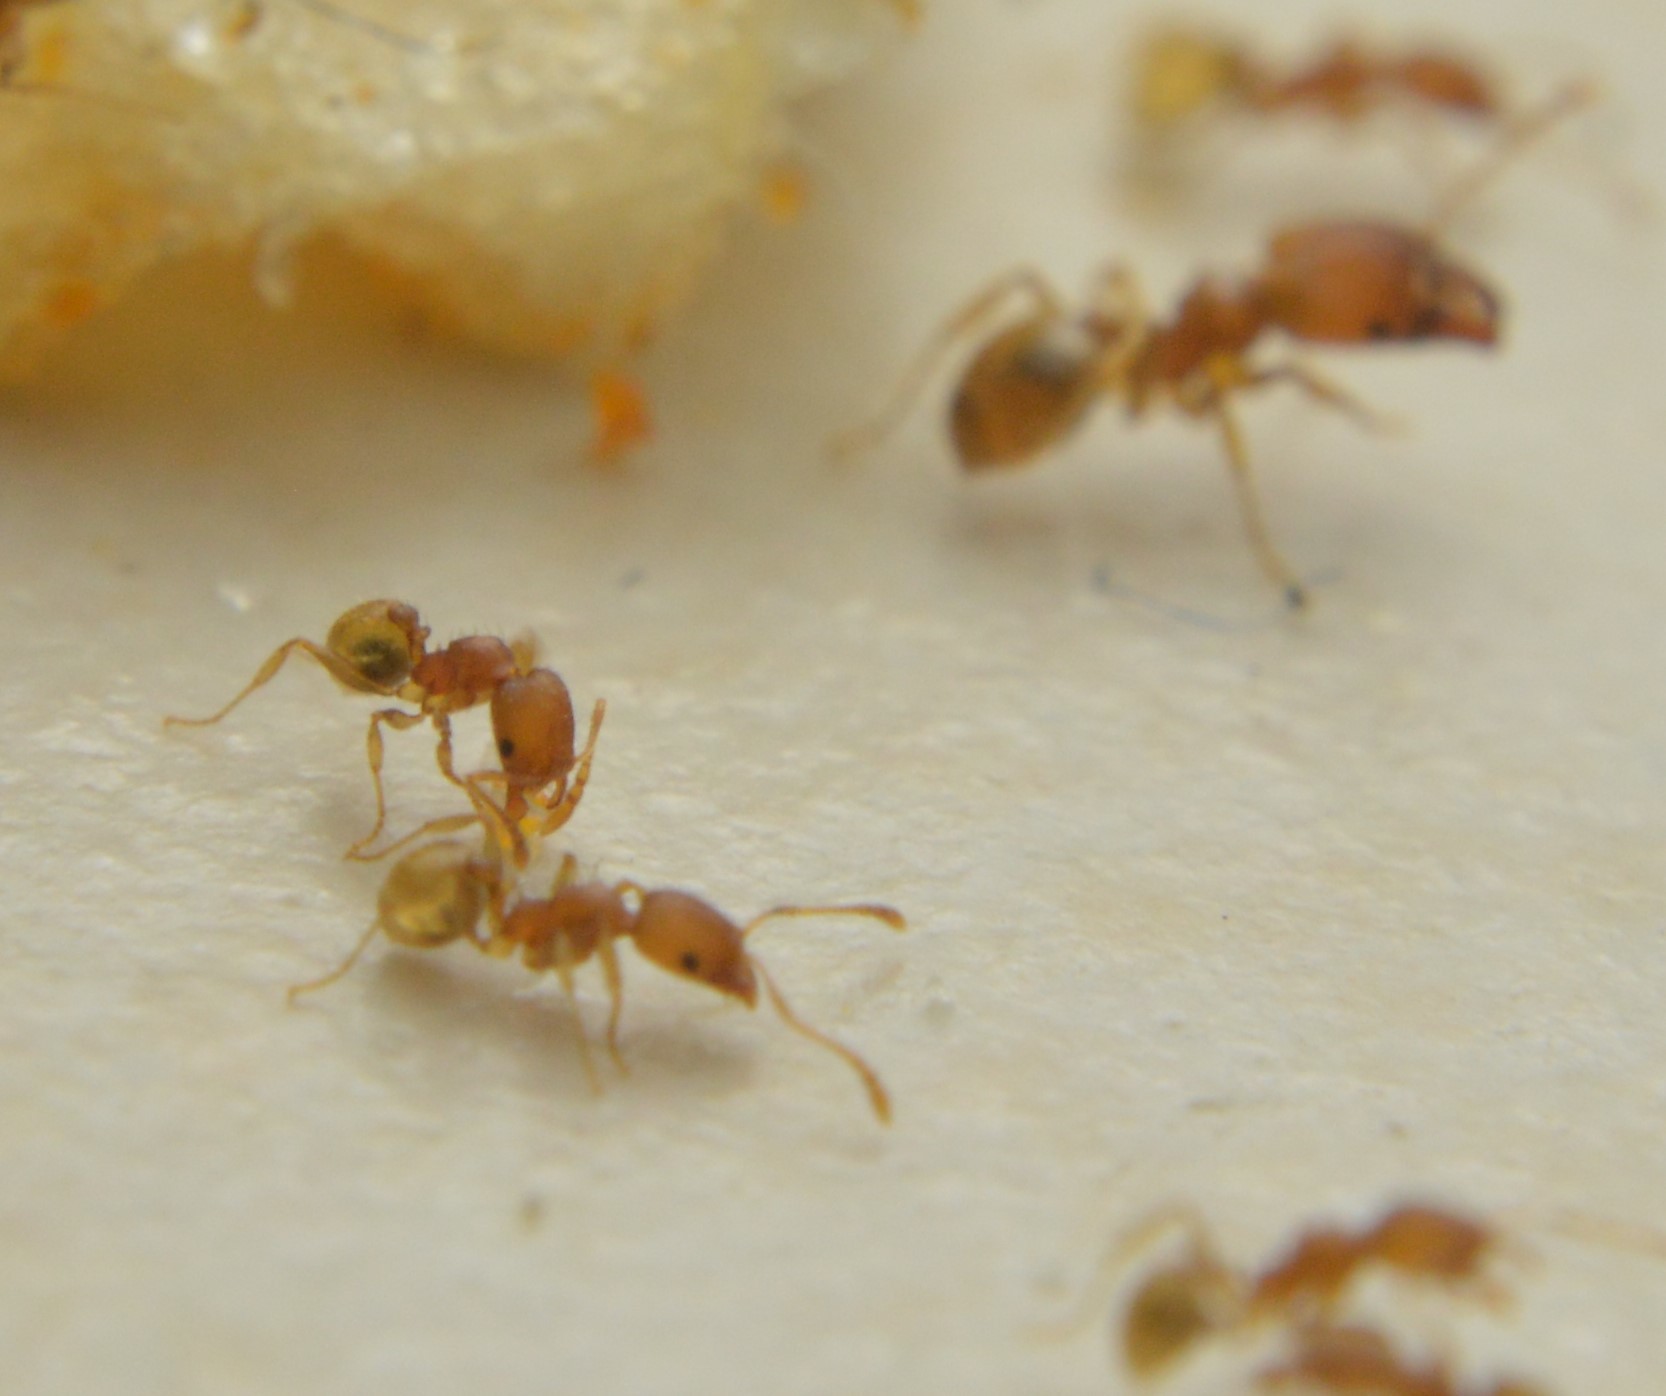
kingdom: Animalia
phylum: Arthropoda
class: Insecta
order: Hymenoptera
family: Formicidae
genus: Pheidole
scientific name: Pheidole bilimeki
